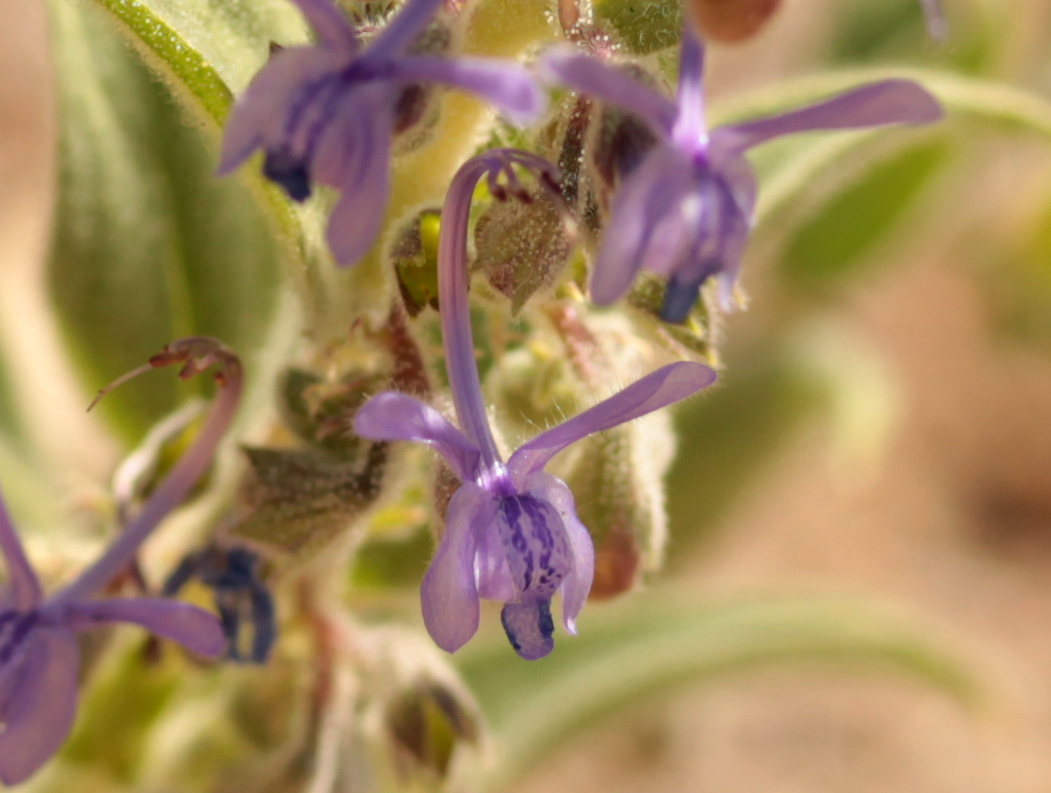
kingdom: Plantae
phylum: Tracheophyta
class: Magnoliopsida
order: Lamiales
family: Lamiaceae
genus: Trichostema
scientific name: Trichostema lanceolatum
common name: Vinegar-weed
